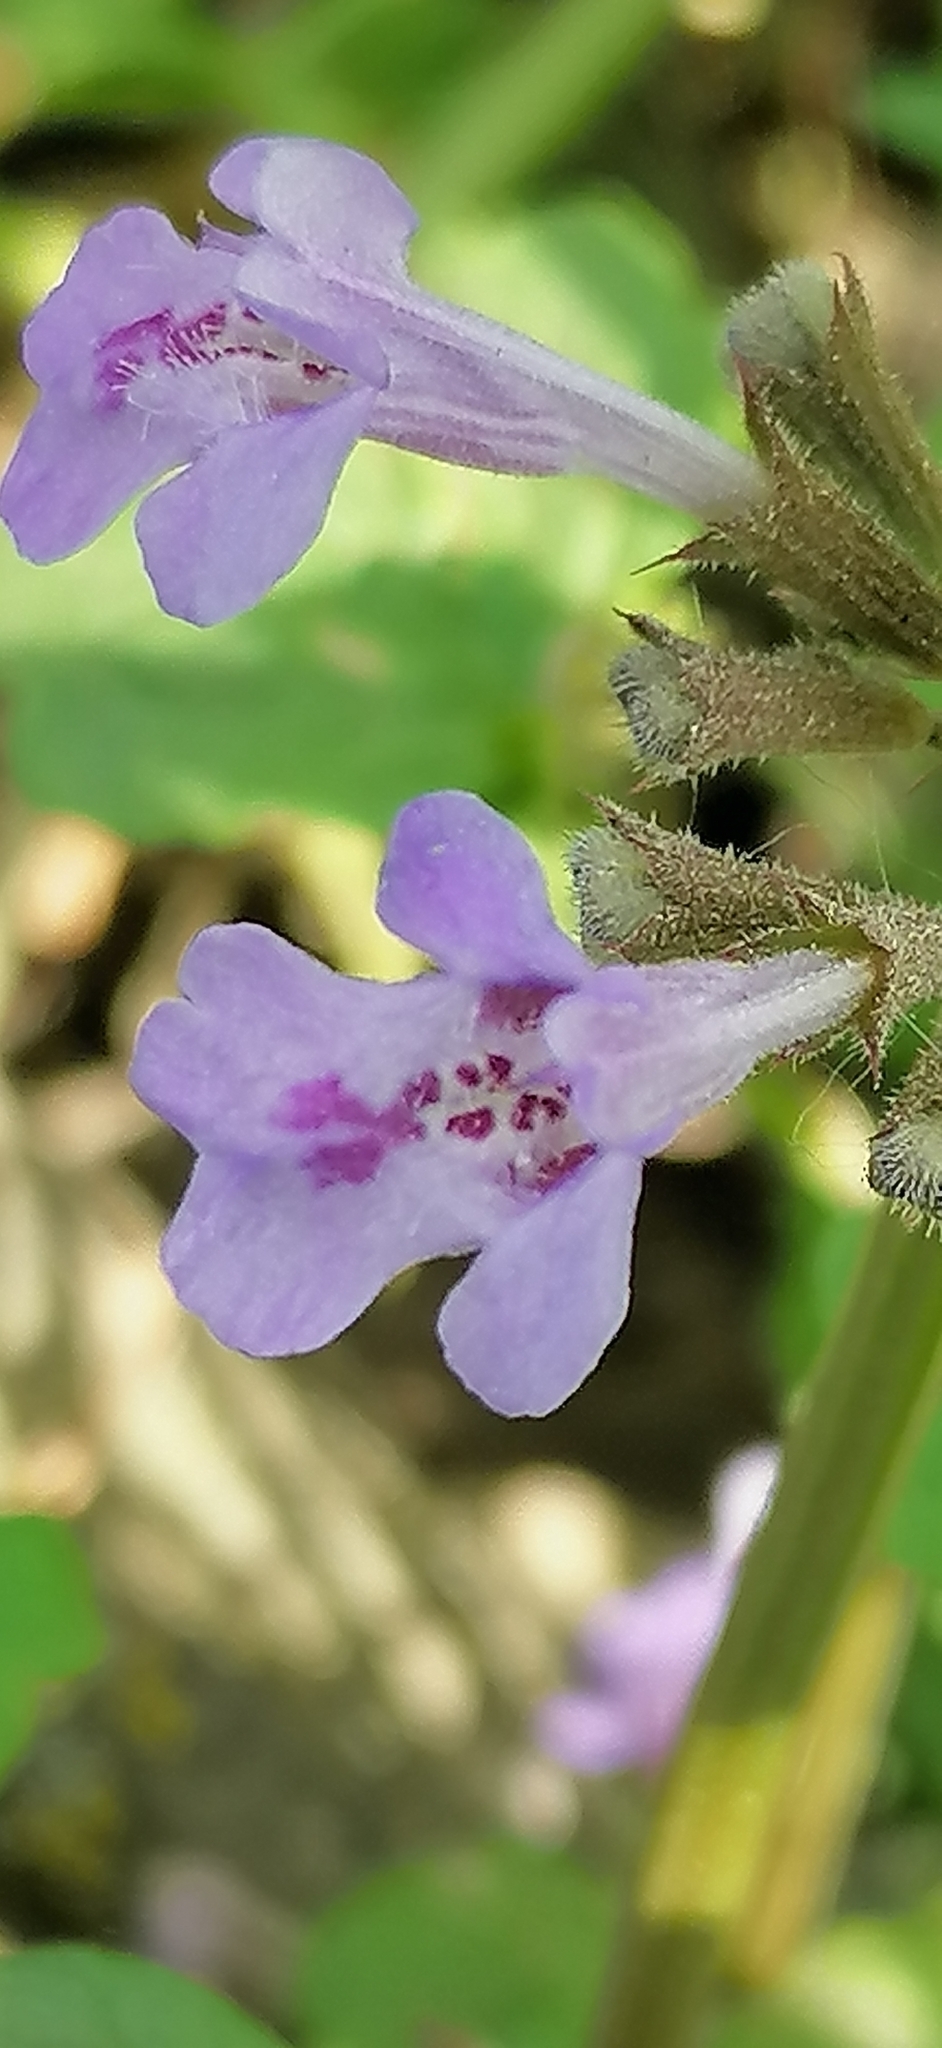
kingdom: Plantae
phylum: Tracheophyta
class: Magnoliopsida
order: Lamiales
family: Lamiaceae
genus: Glechoma
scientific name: Glechoma hederacea
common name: Ground ivy
